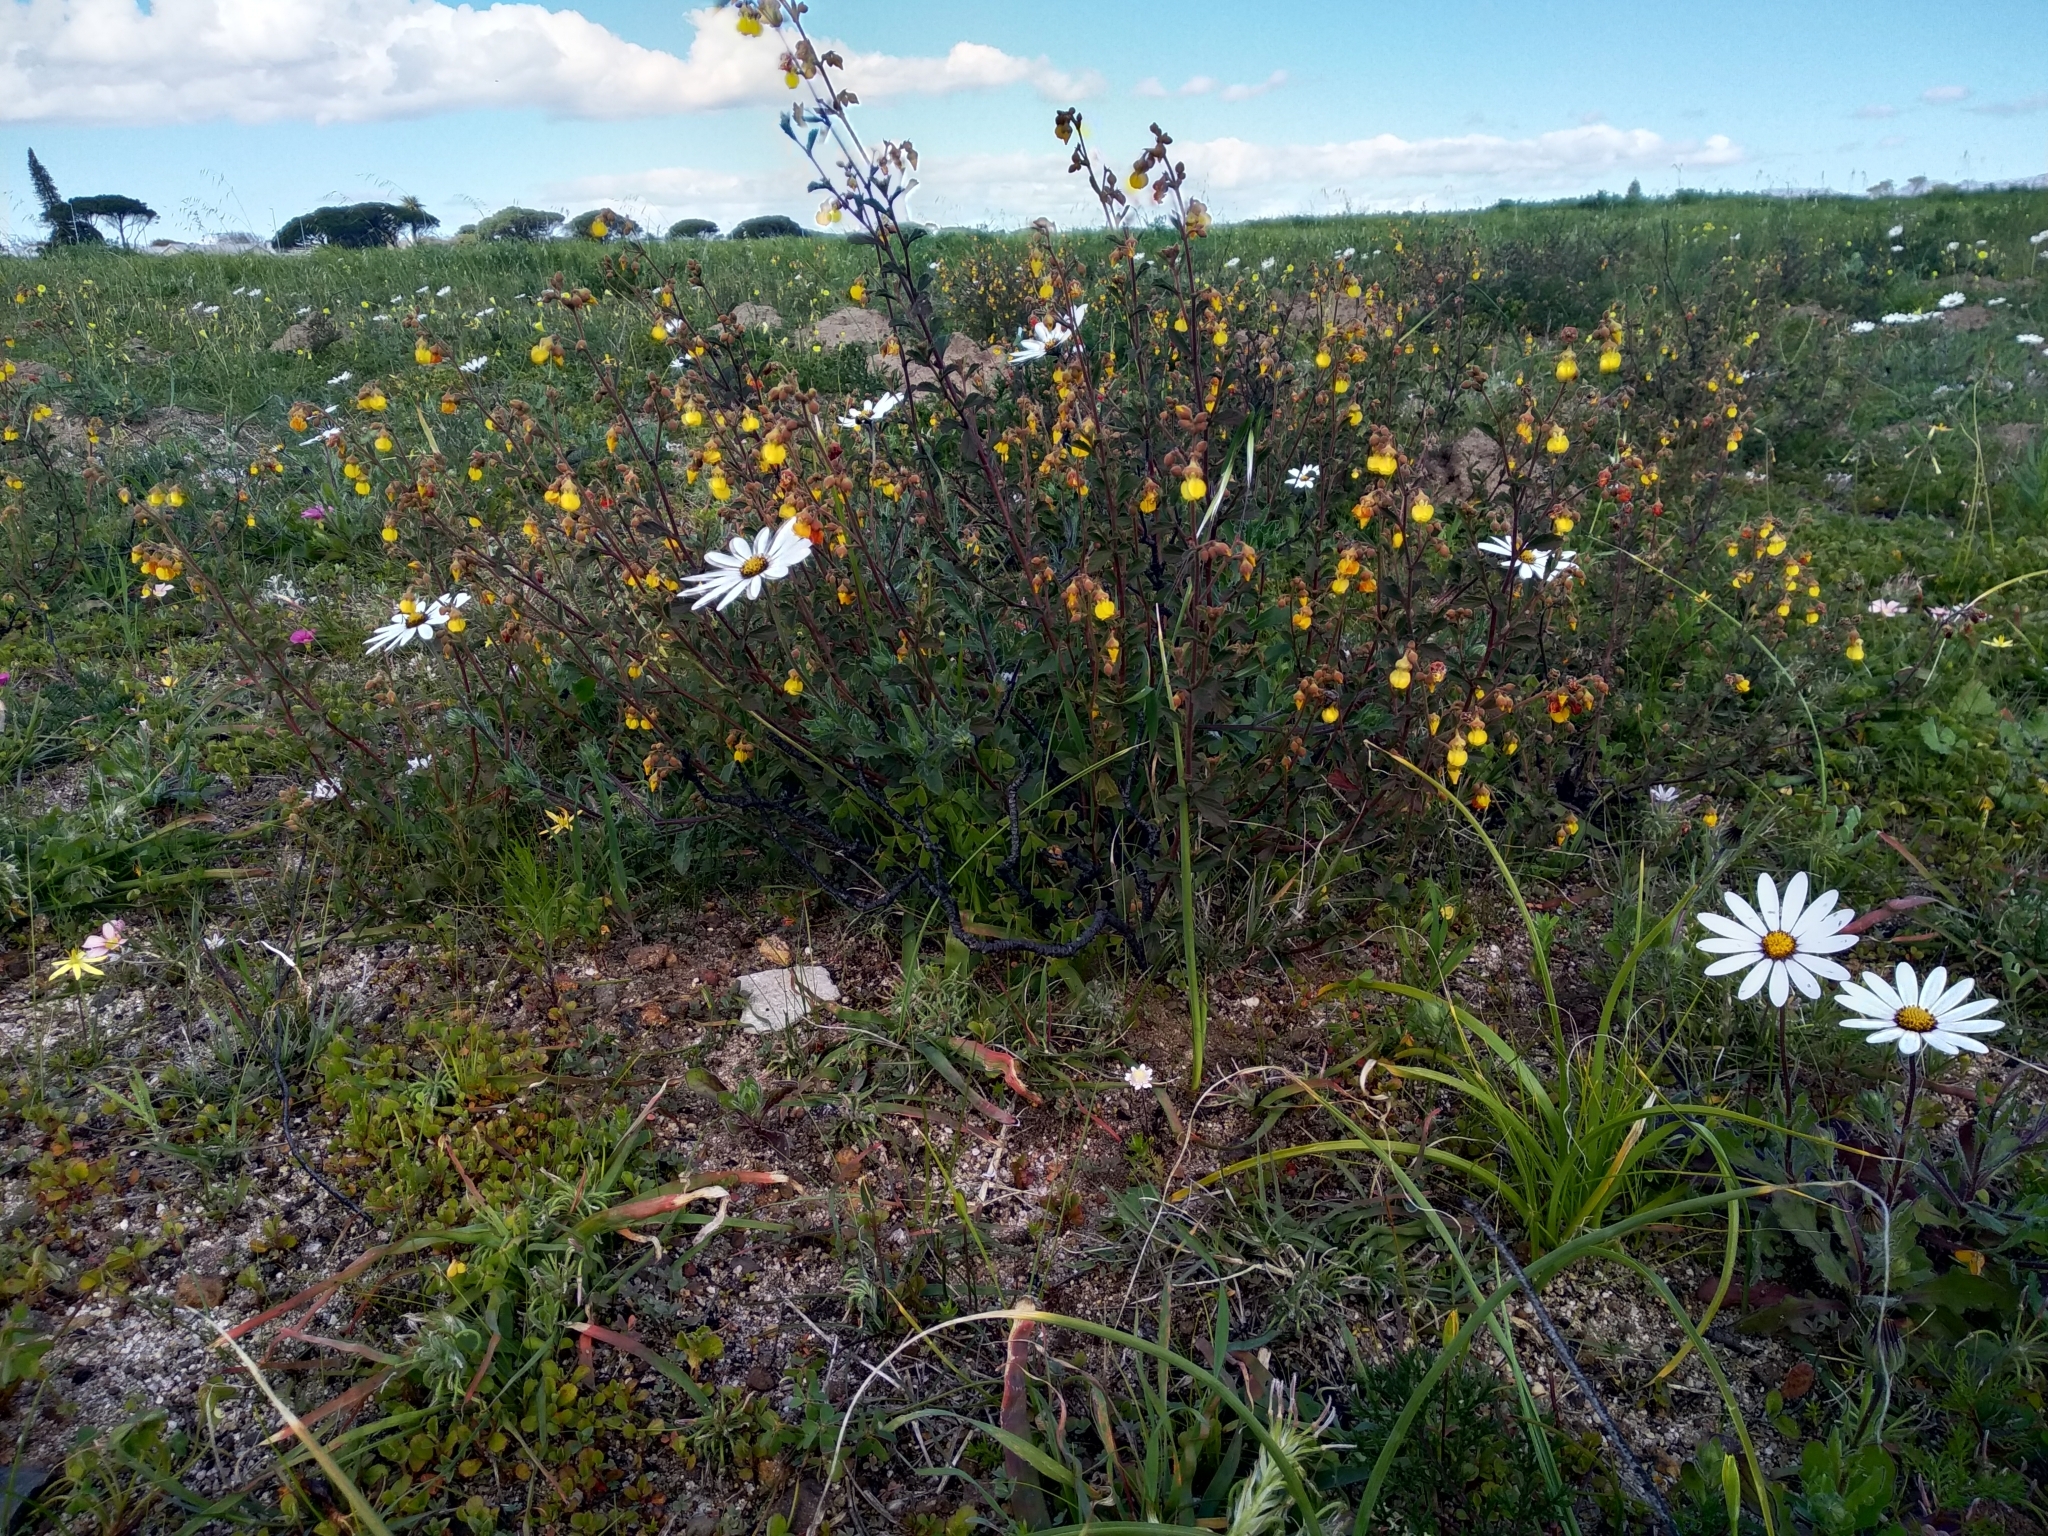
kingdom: Plantae
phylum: Tracheophyta
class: Magnoliopsida
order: Malvales
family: Malvaceae
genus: Hermannia
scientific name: Hermannia multiflora
